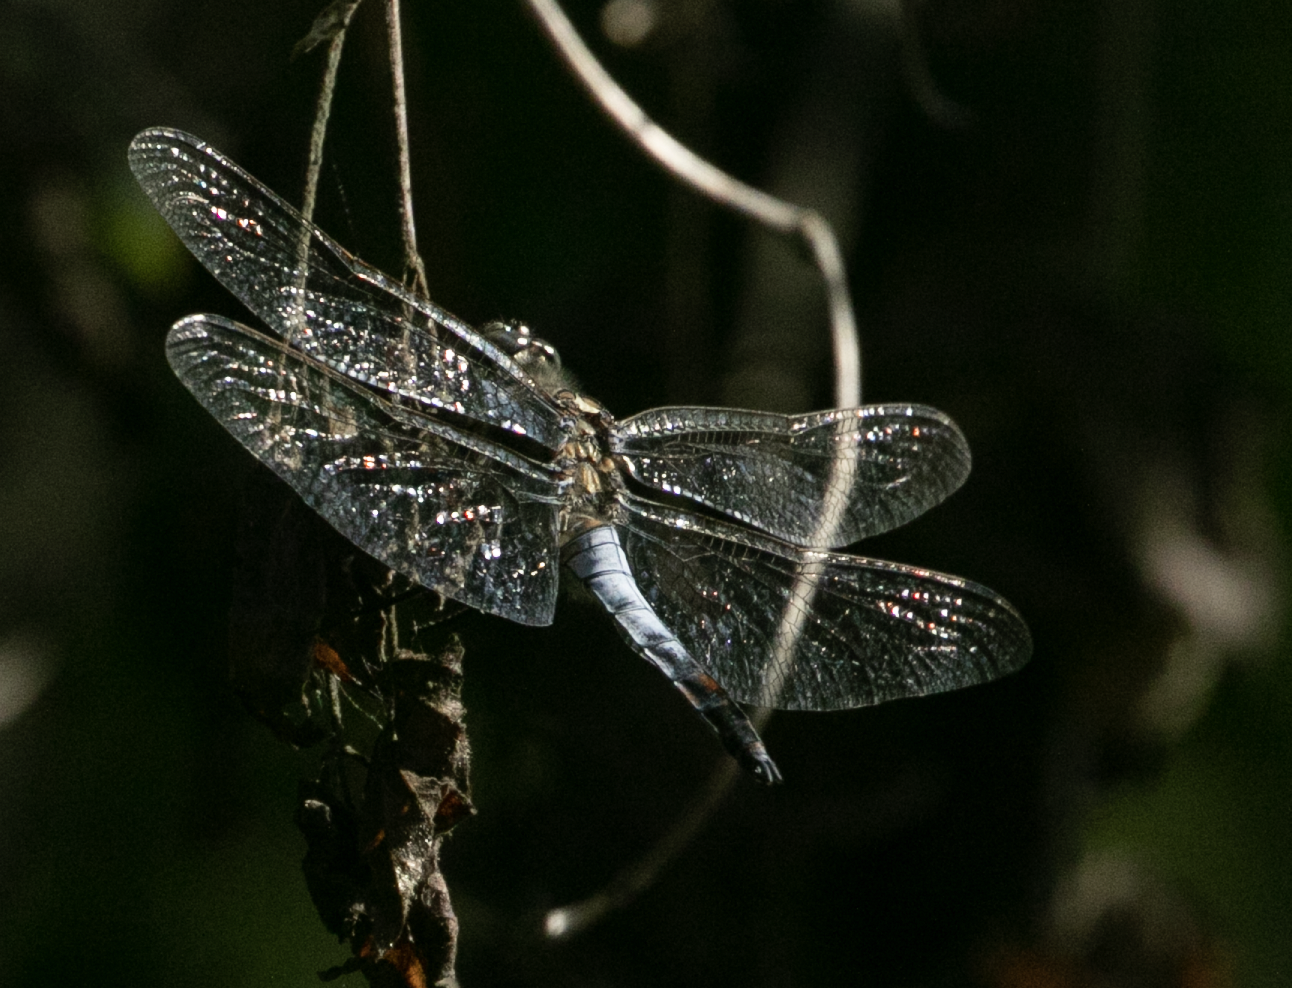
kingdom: Animalia
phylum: Arthropoda
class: Insecta
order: Odonata
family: Libellulidae
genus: Orthetrum
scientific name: Orthetrum cancellatum
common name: Black-tailed skimmer
